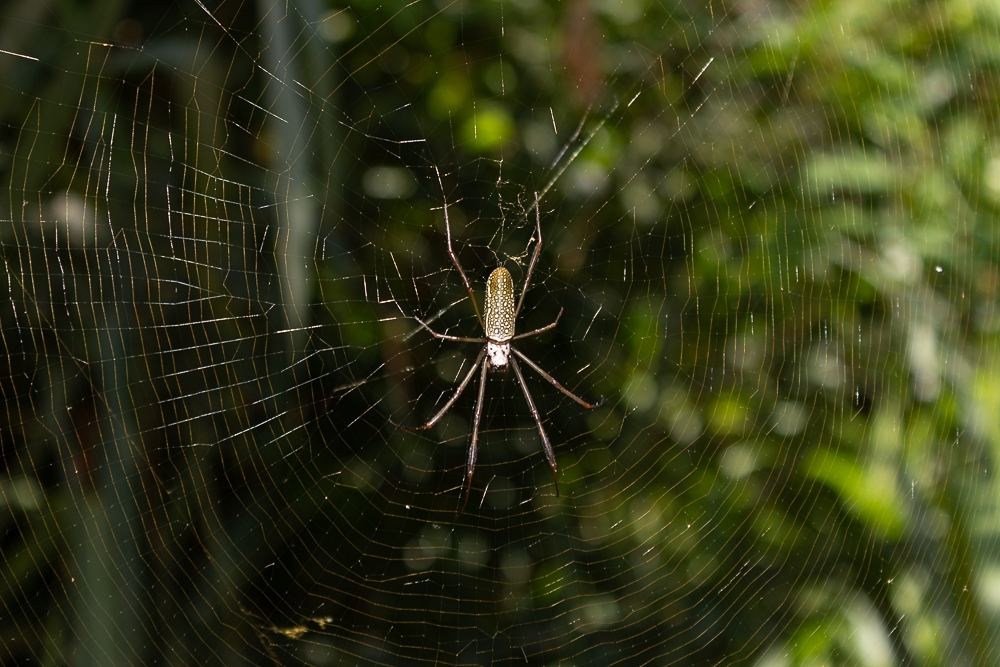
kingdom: Animalia
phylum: Arthropoda
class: Arachnida
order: Araneae
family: Araneidae
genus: Trichonephila
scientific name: Trichonephila clavipes
